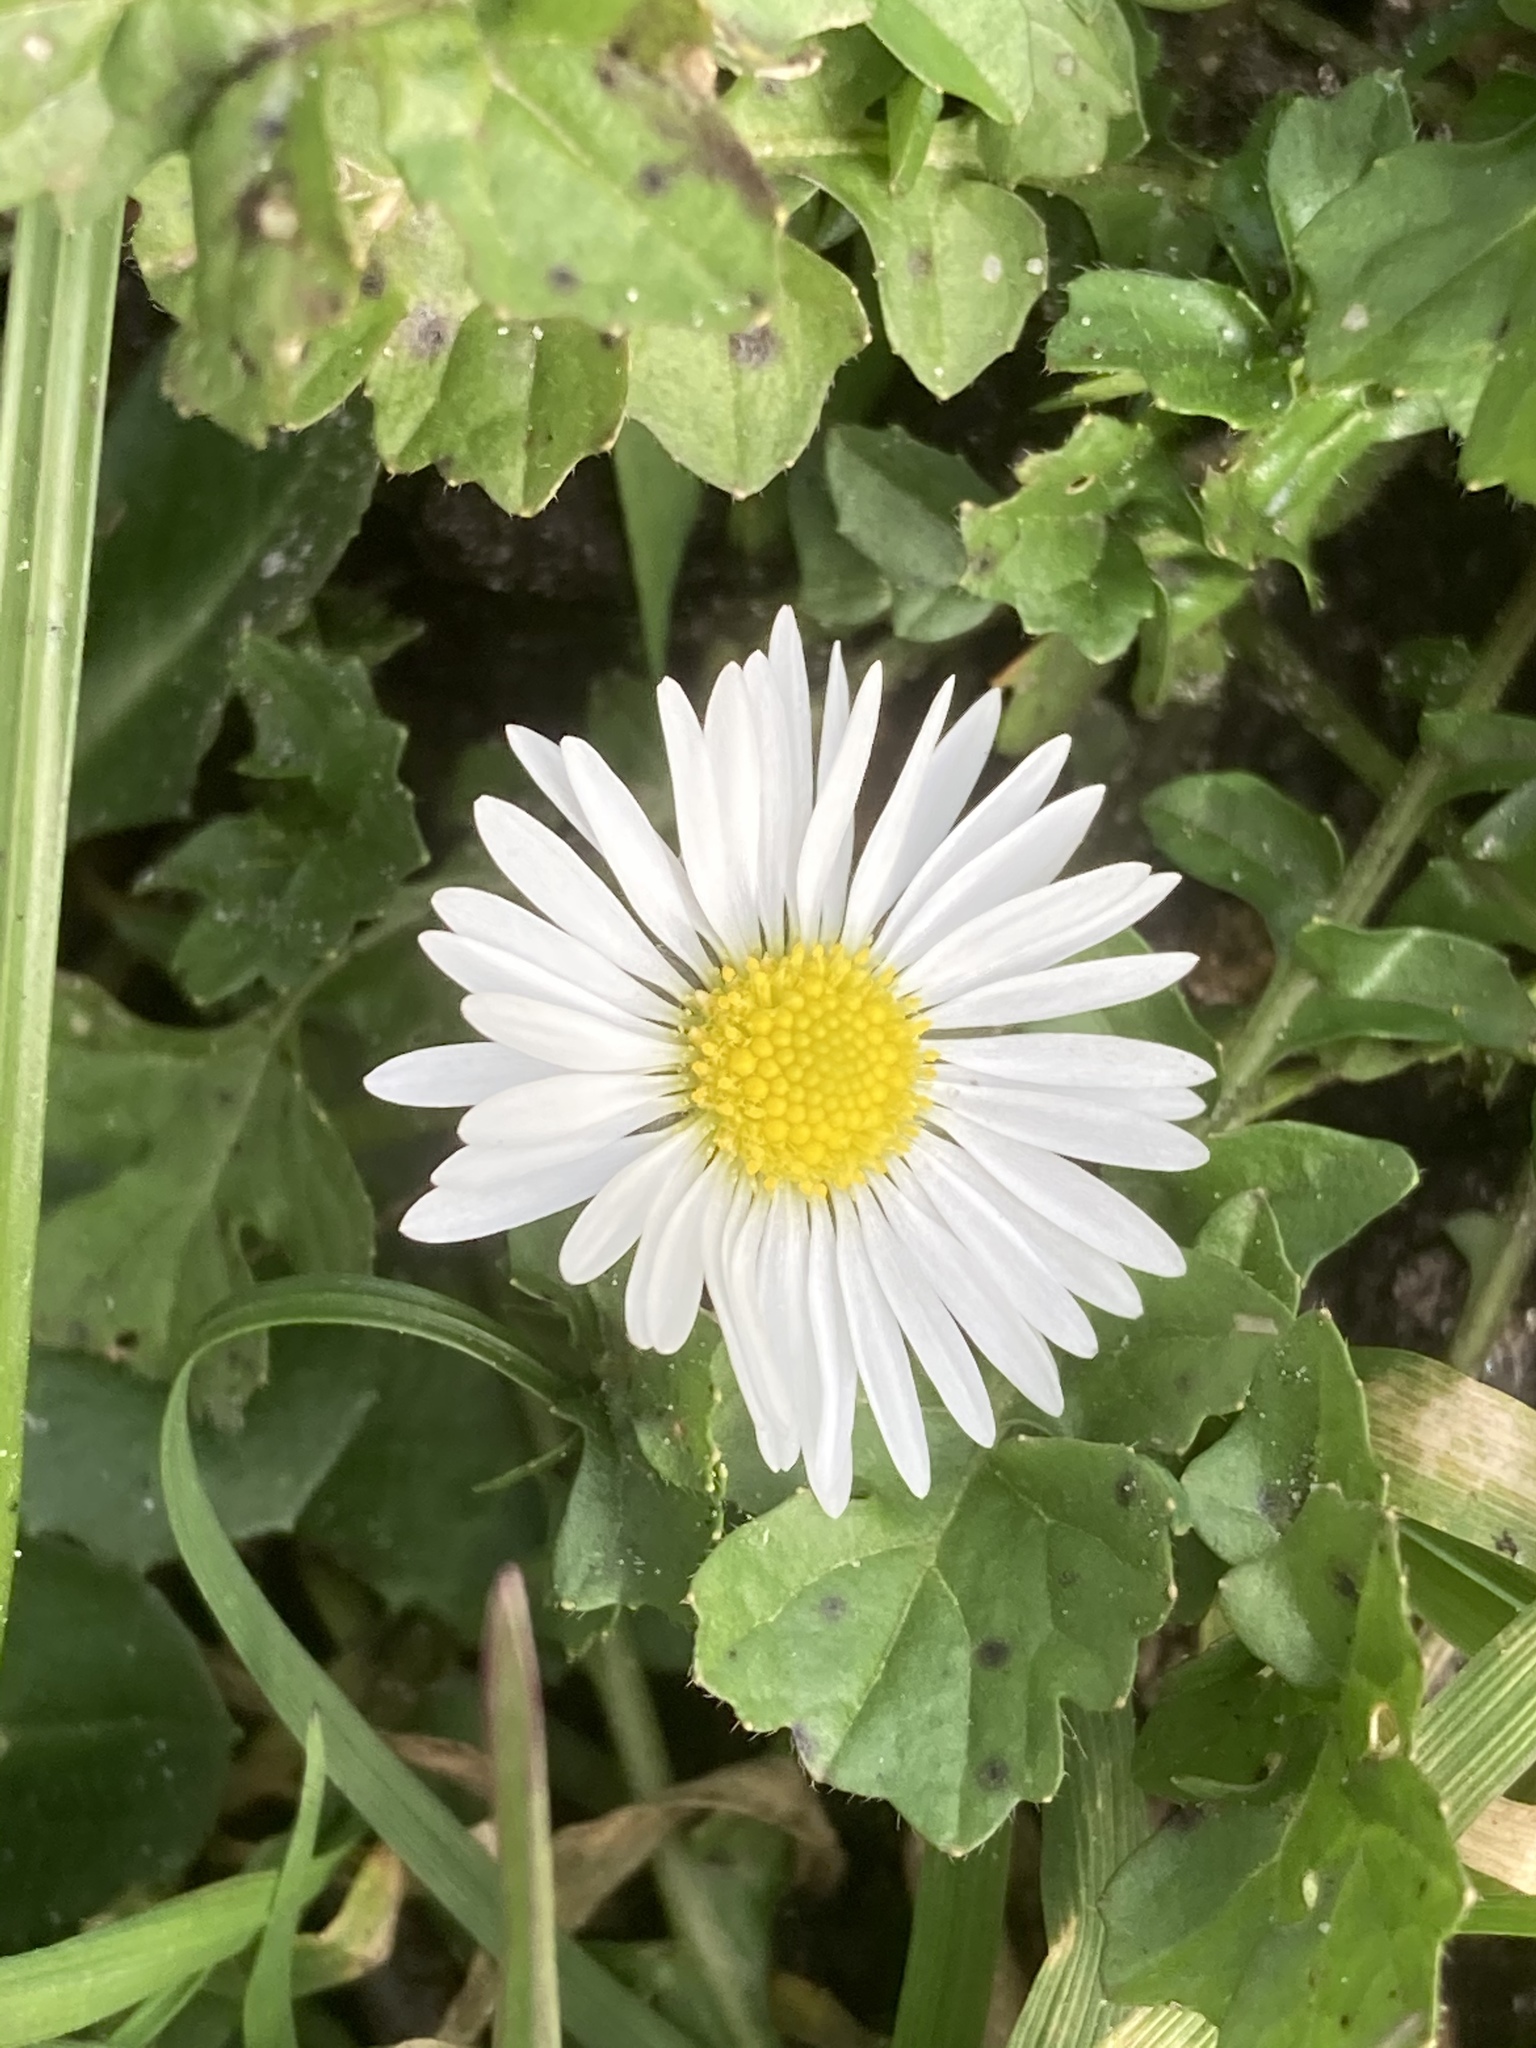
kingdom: Plantae
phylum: Tracheophyta
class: Magnoliopsida
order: Asterales
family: Asteraceae
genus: Bellis
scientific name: Bellis perennis
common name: Lawndaisy
